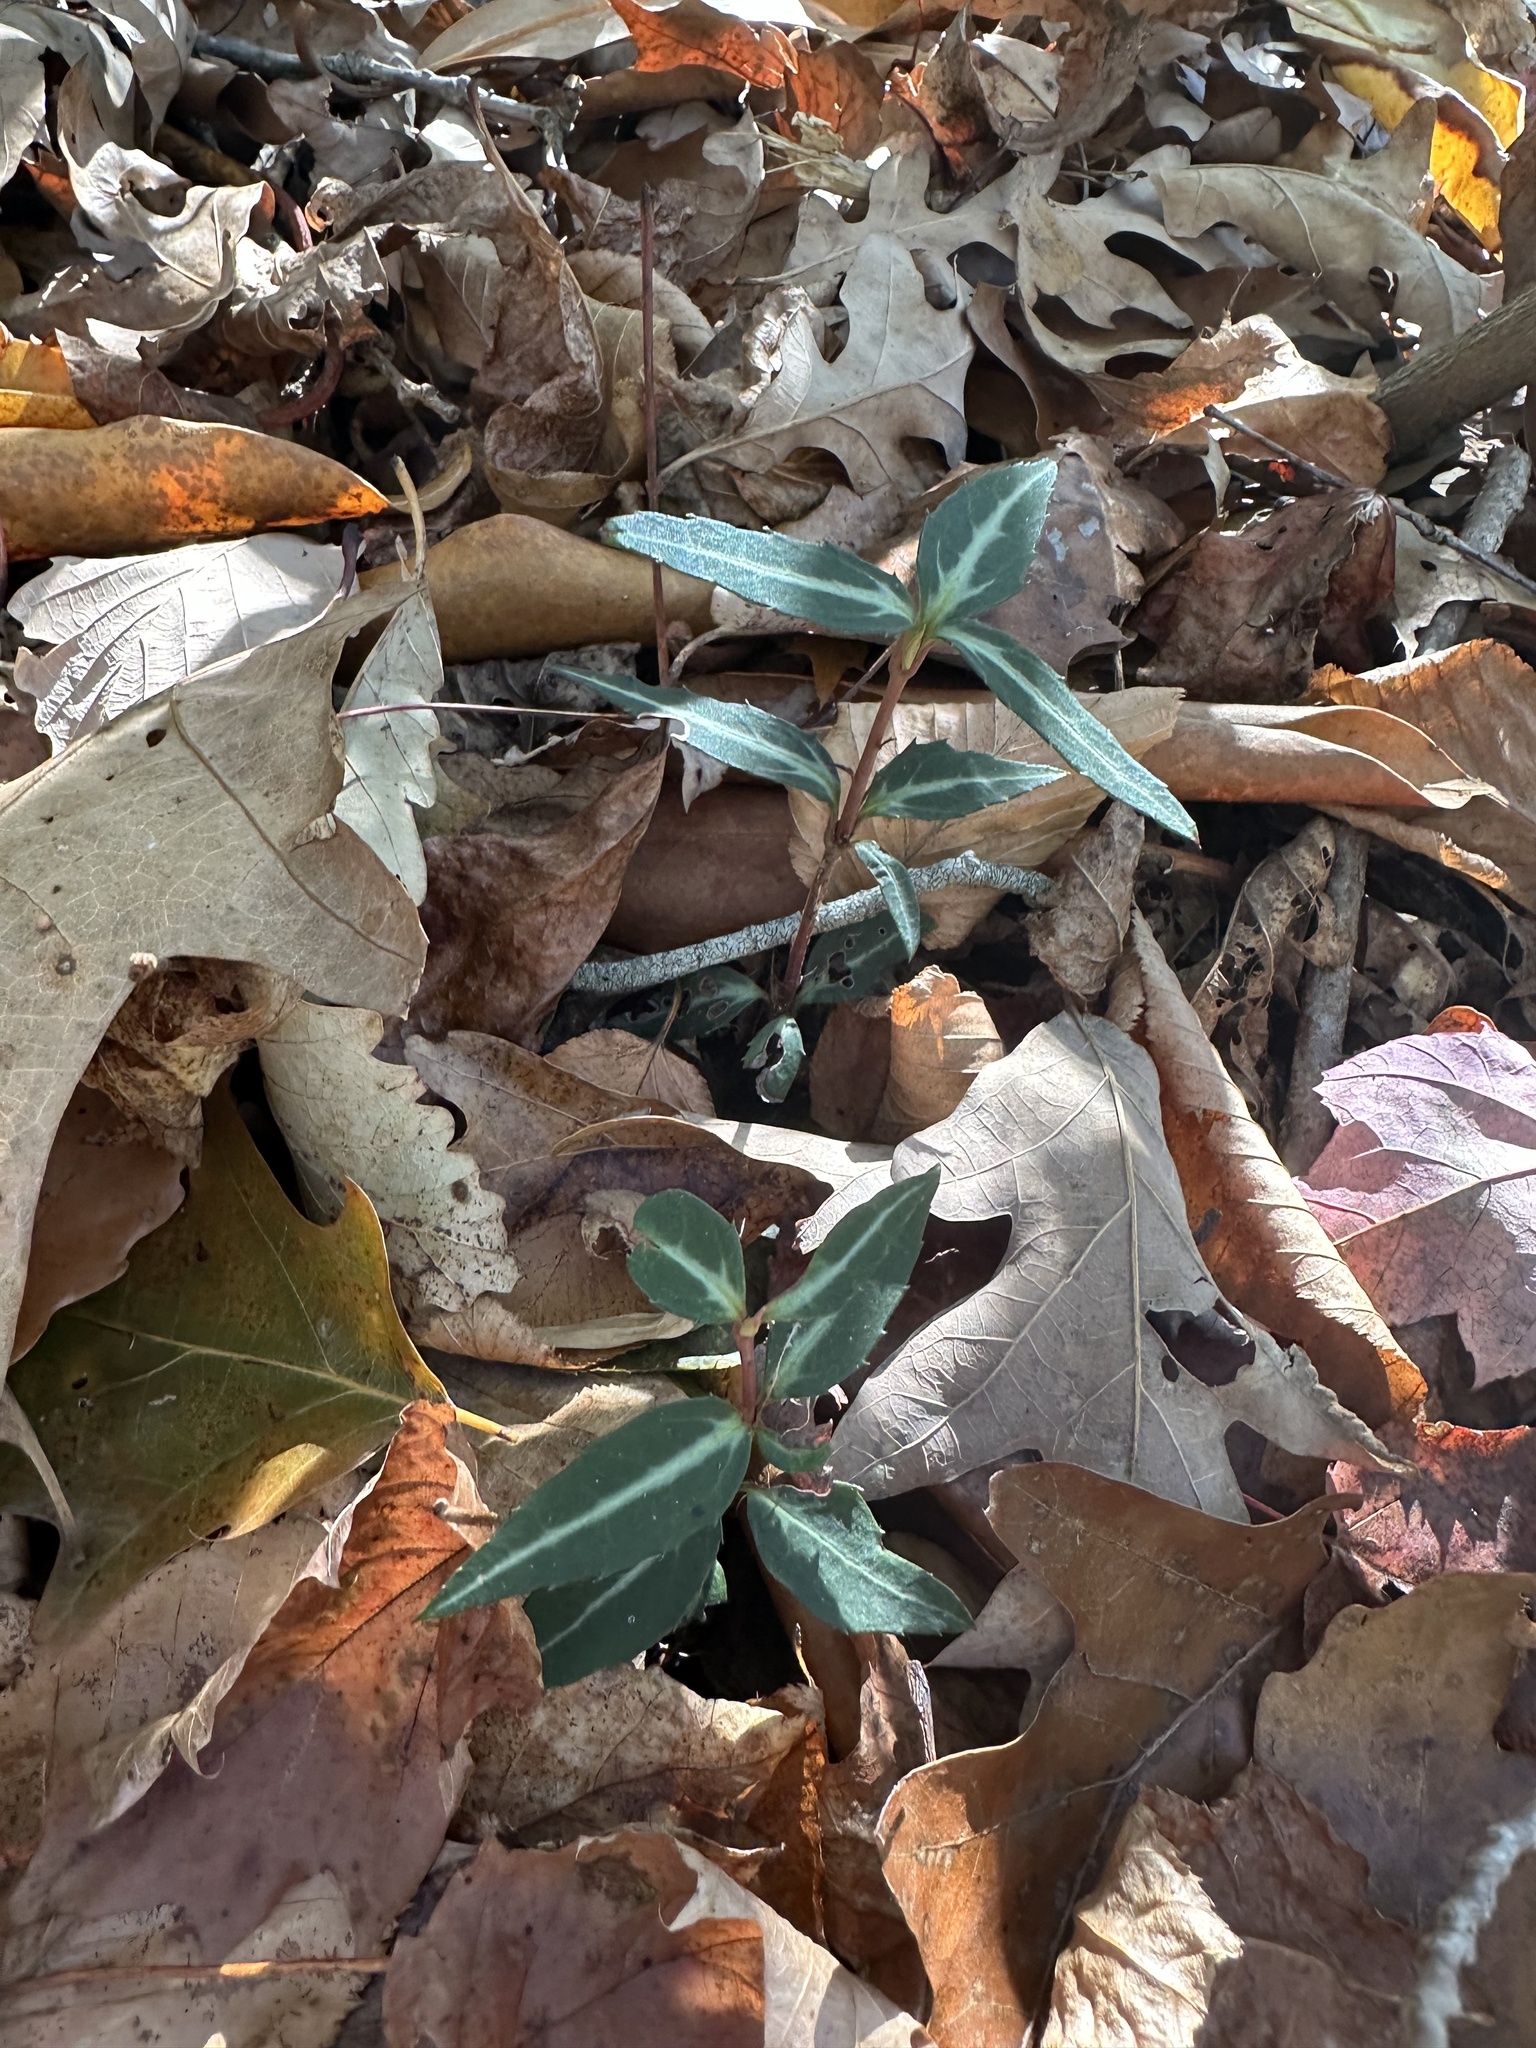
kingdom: Plantae
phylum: Tracheophyta
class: Magnoliopsida
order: Ericales
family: Ericaceae
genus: Chimaphila
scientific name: Chimaphila maculata
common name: Spotted pipsissewa
